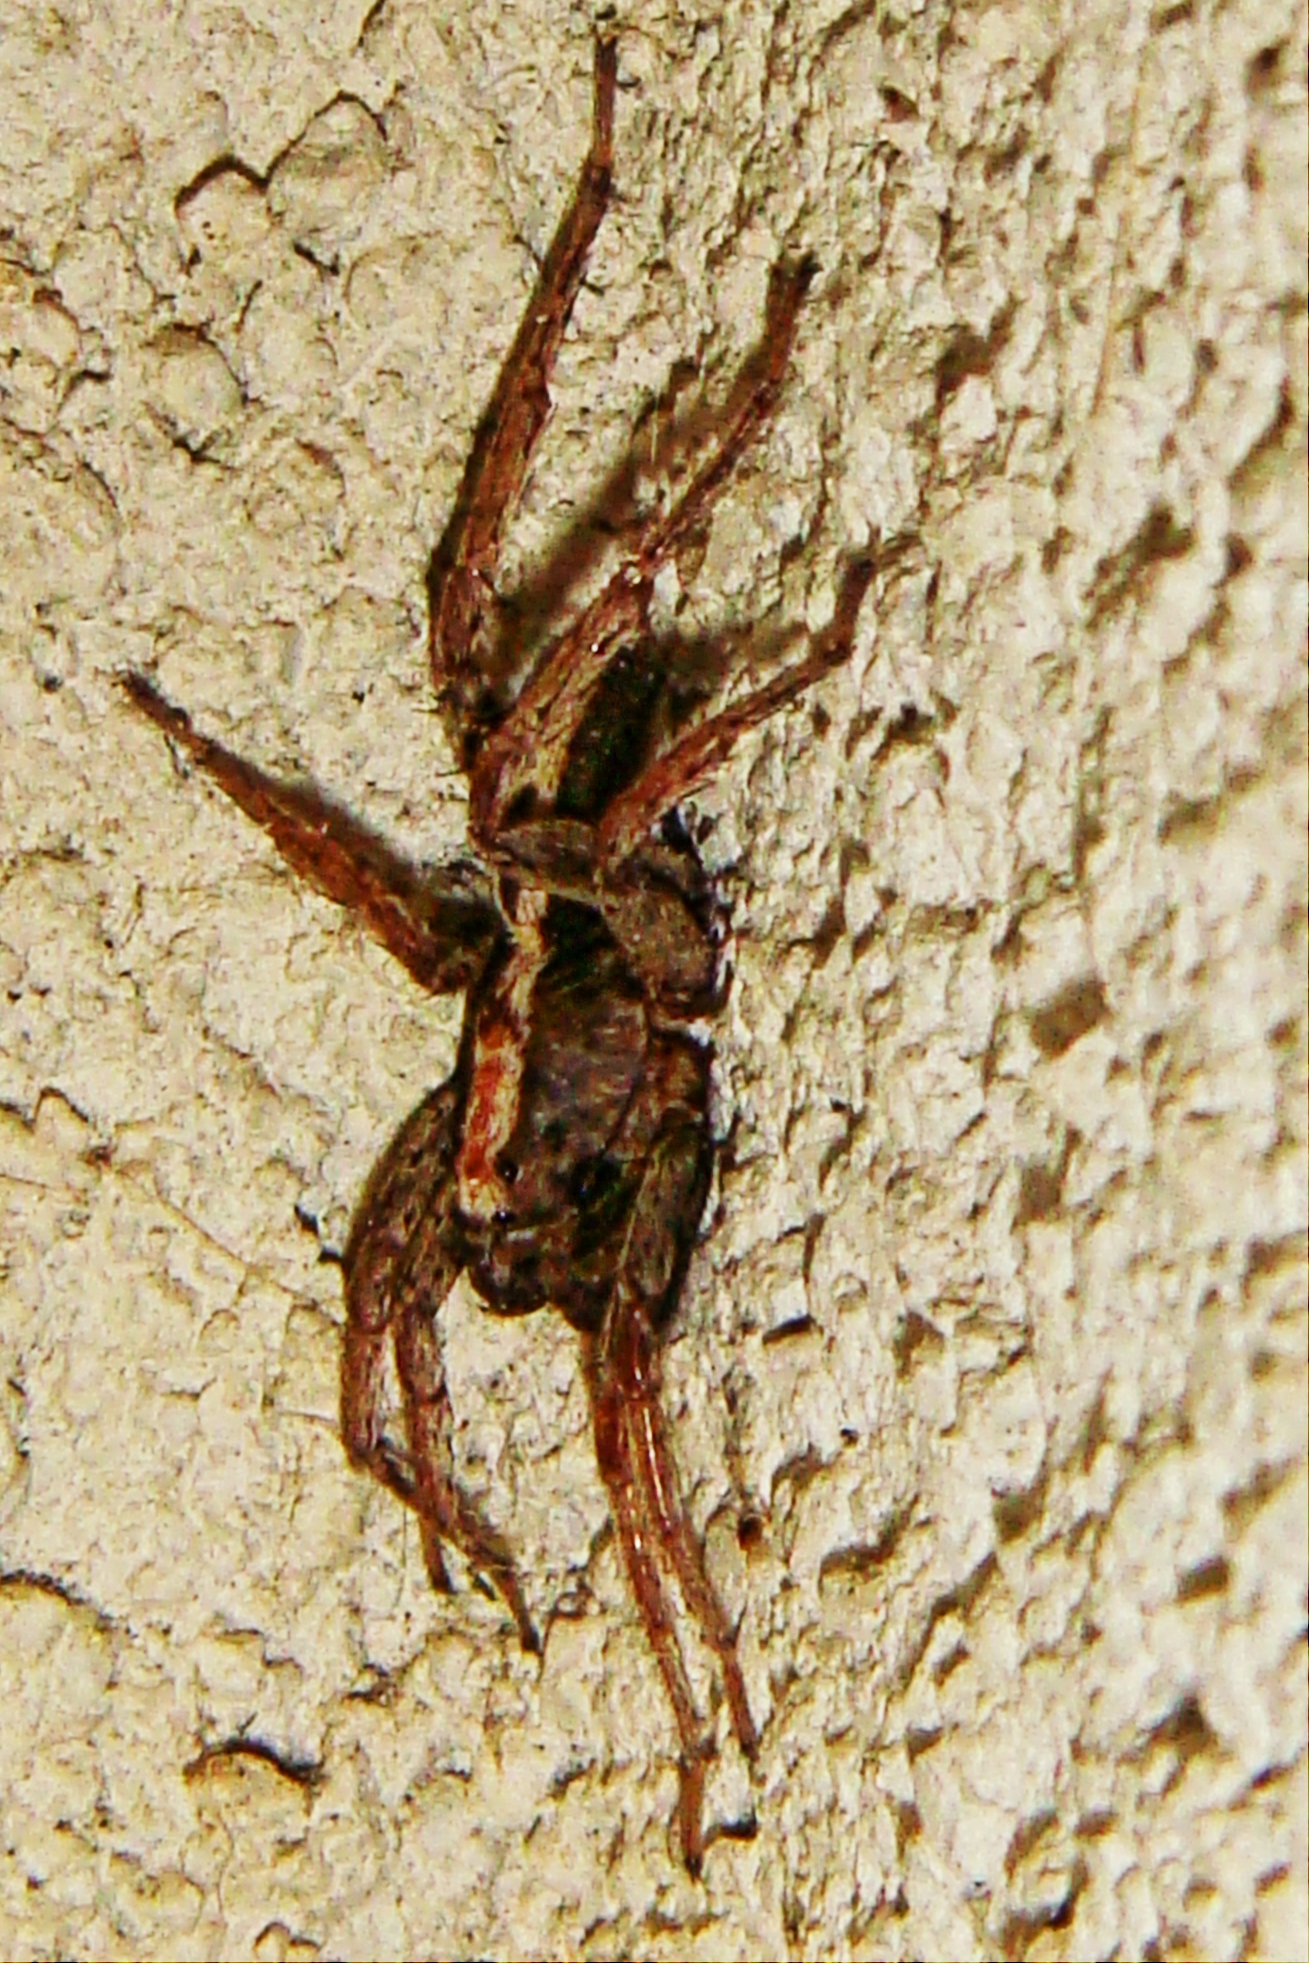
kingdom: Animalia
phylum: Arthropoda
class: Arachnida
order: Araneae
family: Lycosidae
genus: Alopecosa
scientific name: Alopecosa albofasciata
